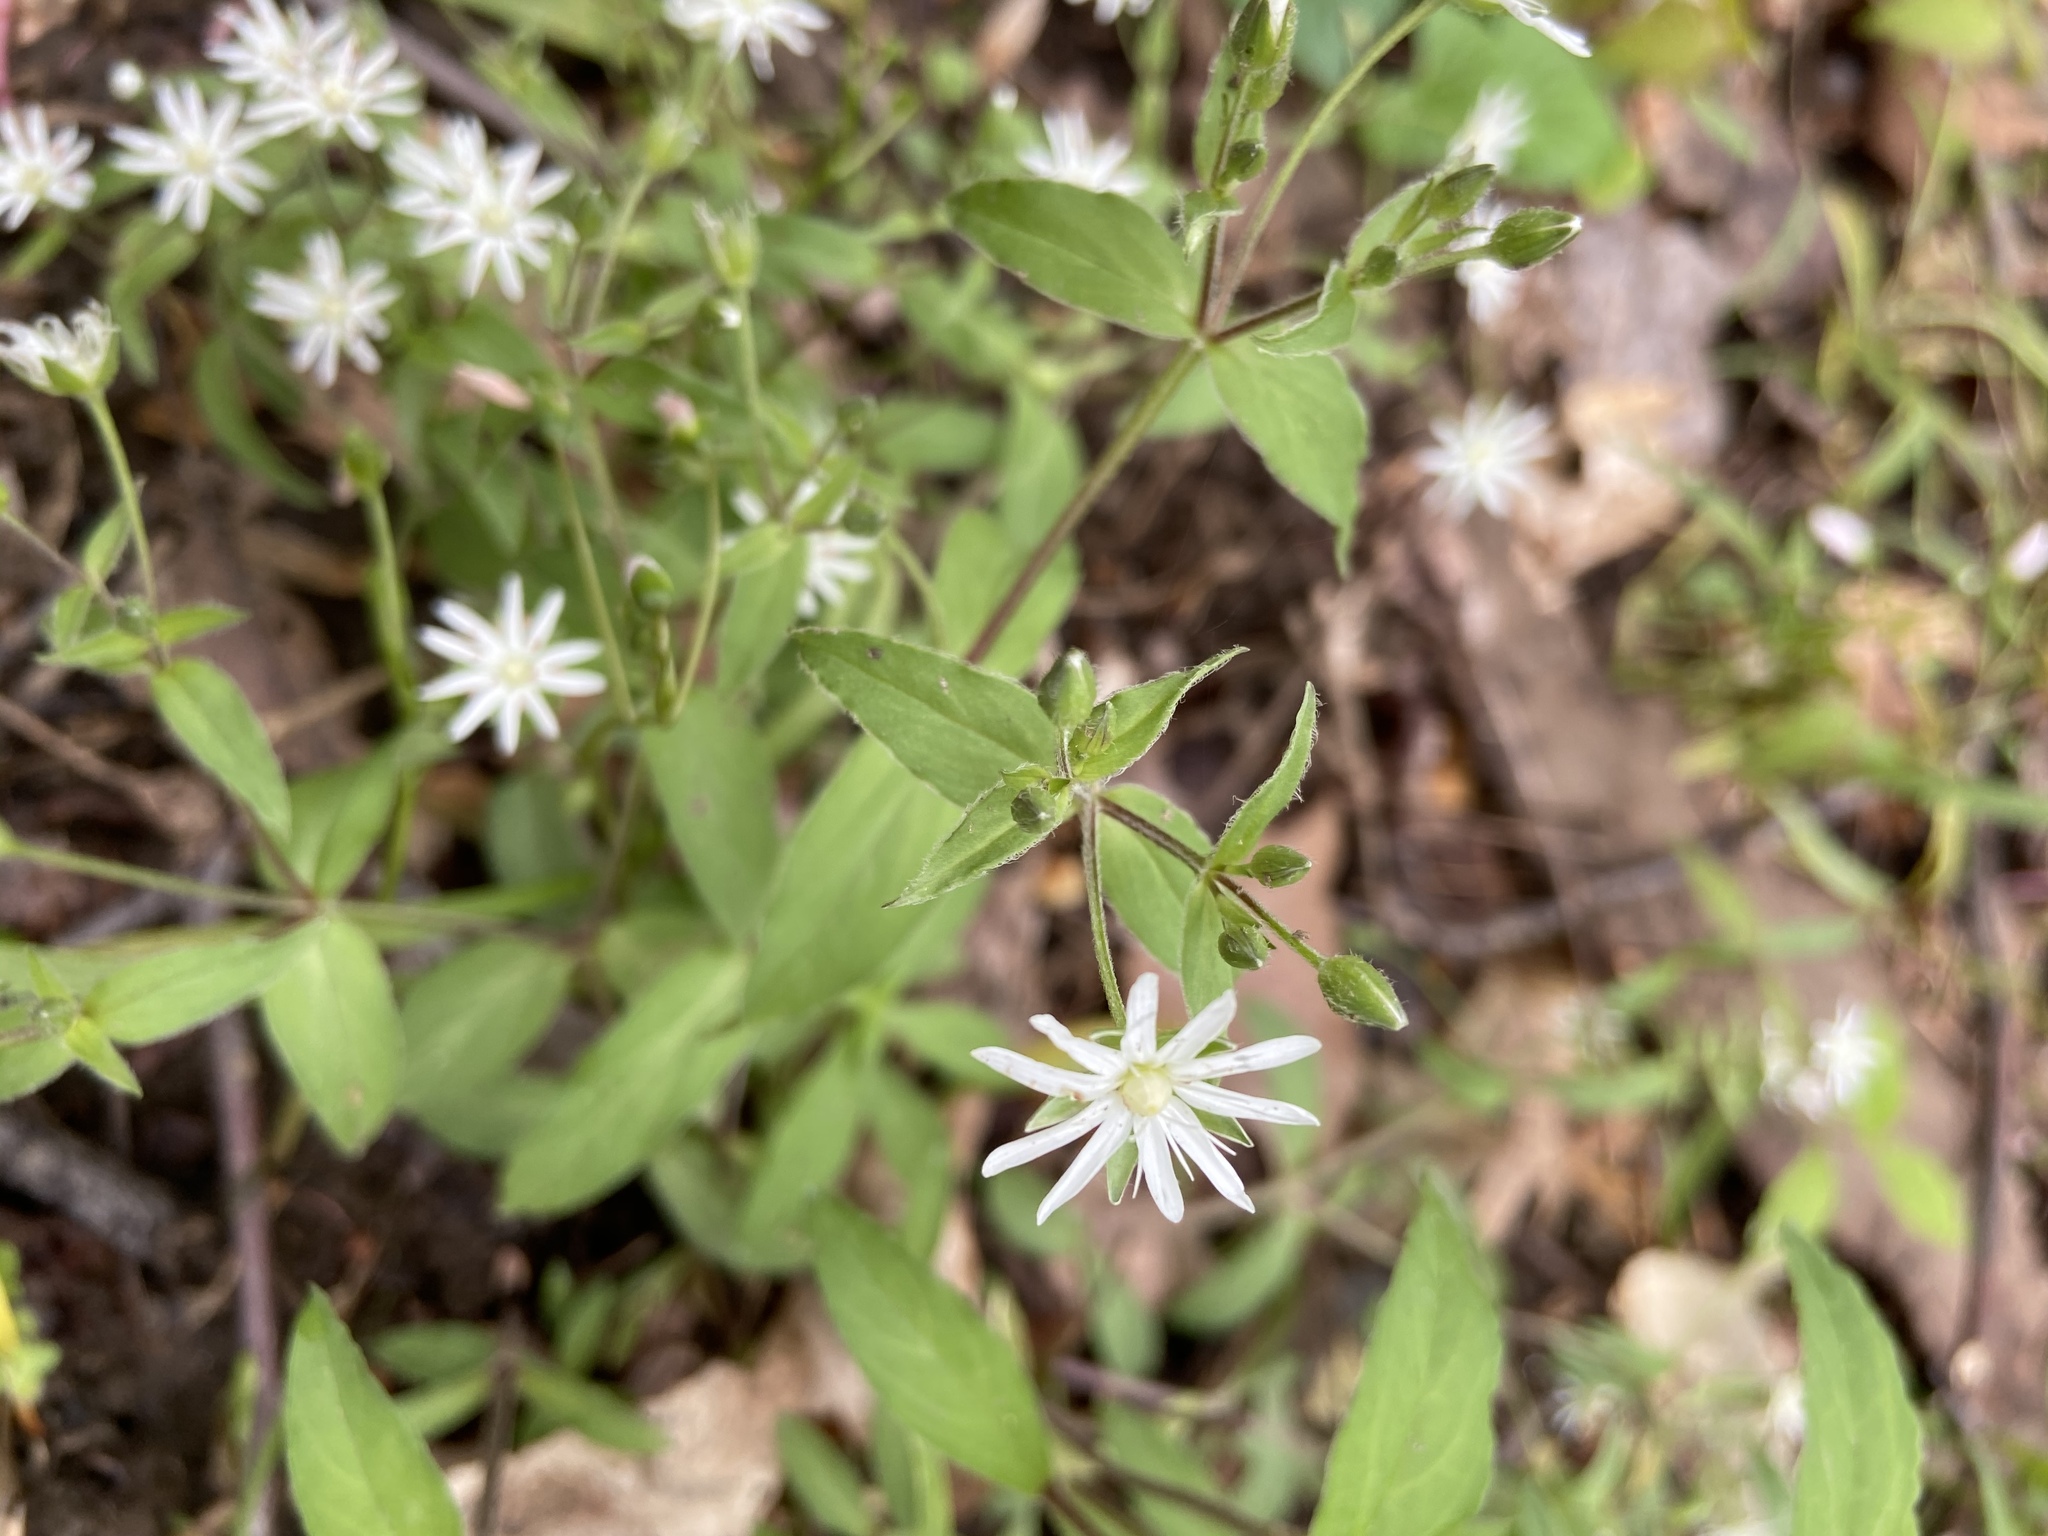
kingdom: Plantae
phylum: Tracheophyta
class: Magnoliopsida
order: Caryophyllales
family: Caryophyllaceae
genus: Stellaria
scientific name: Stellaria pubera
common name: Star chickweed
